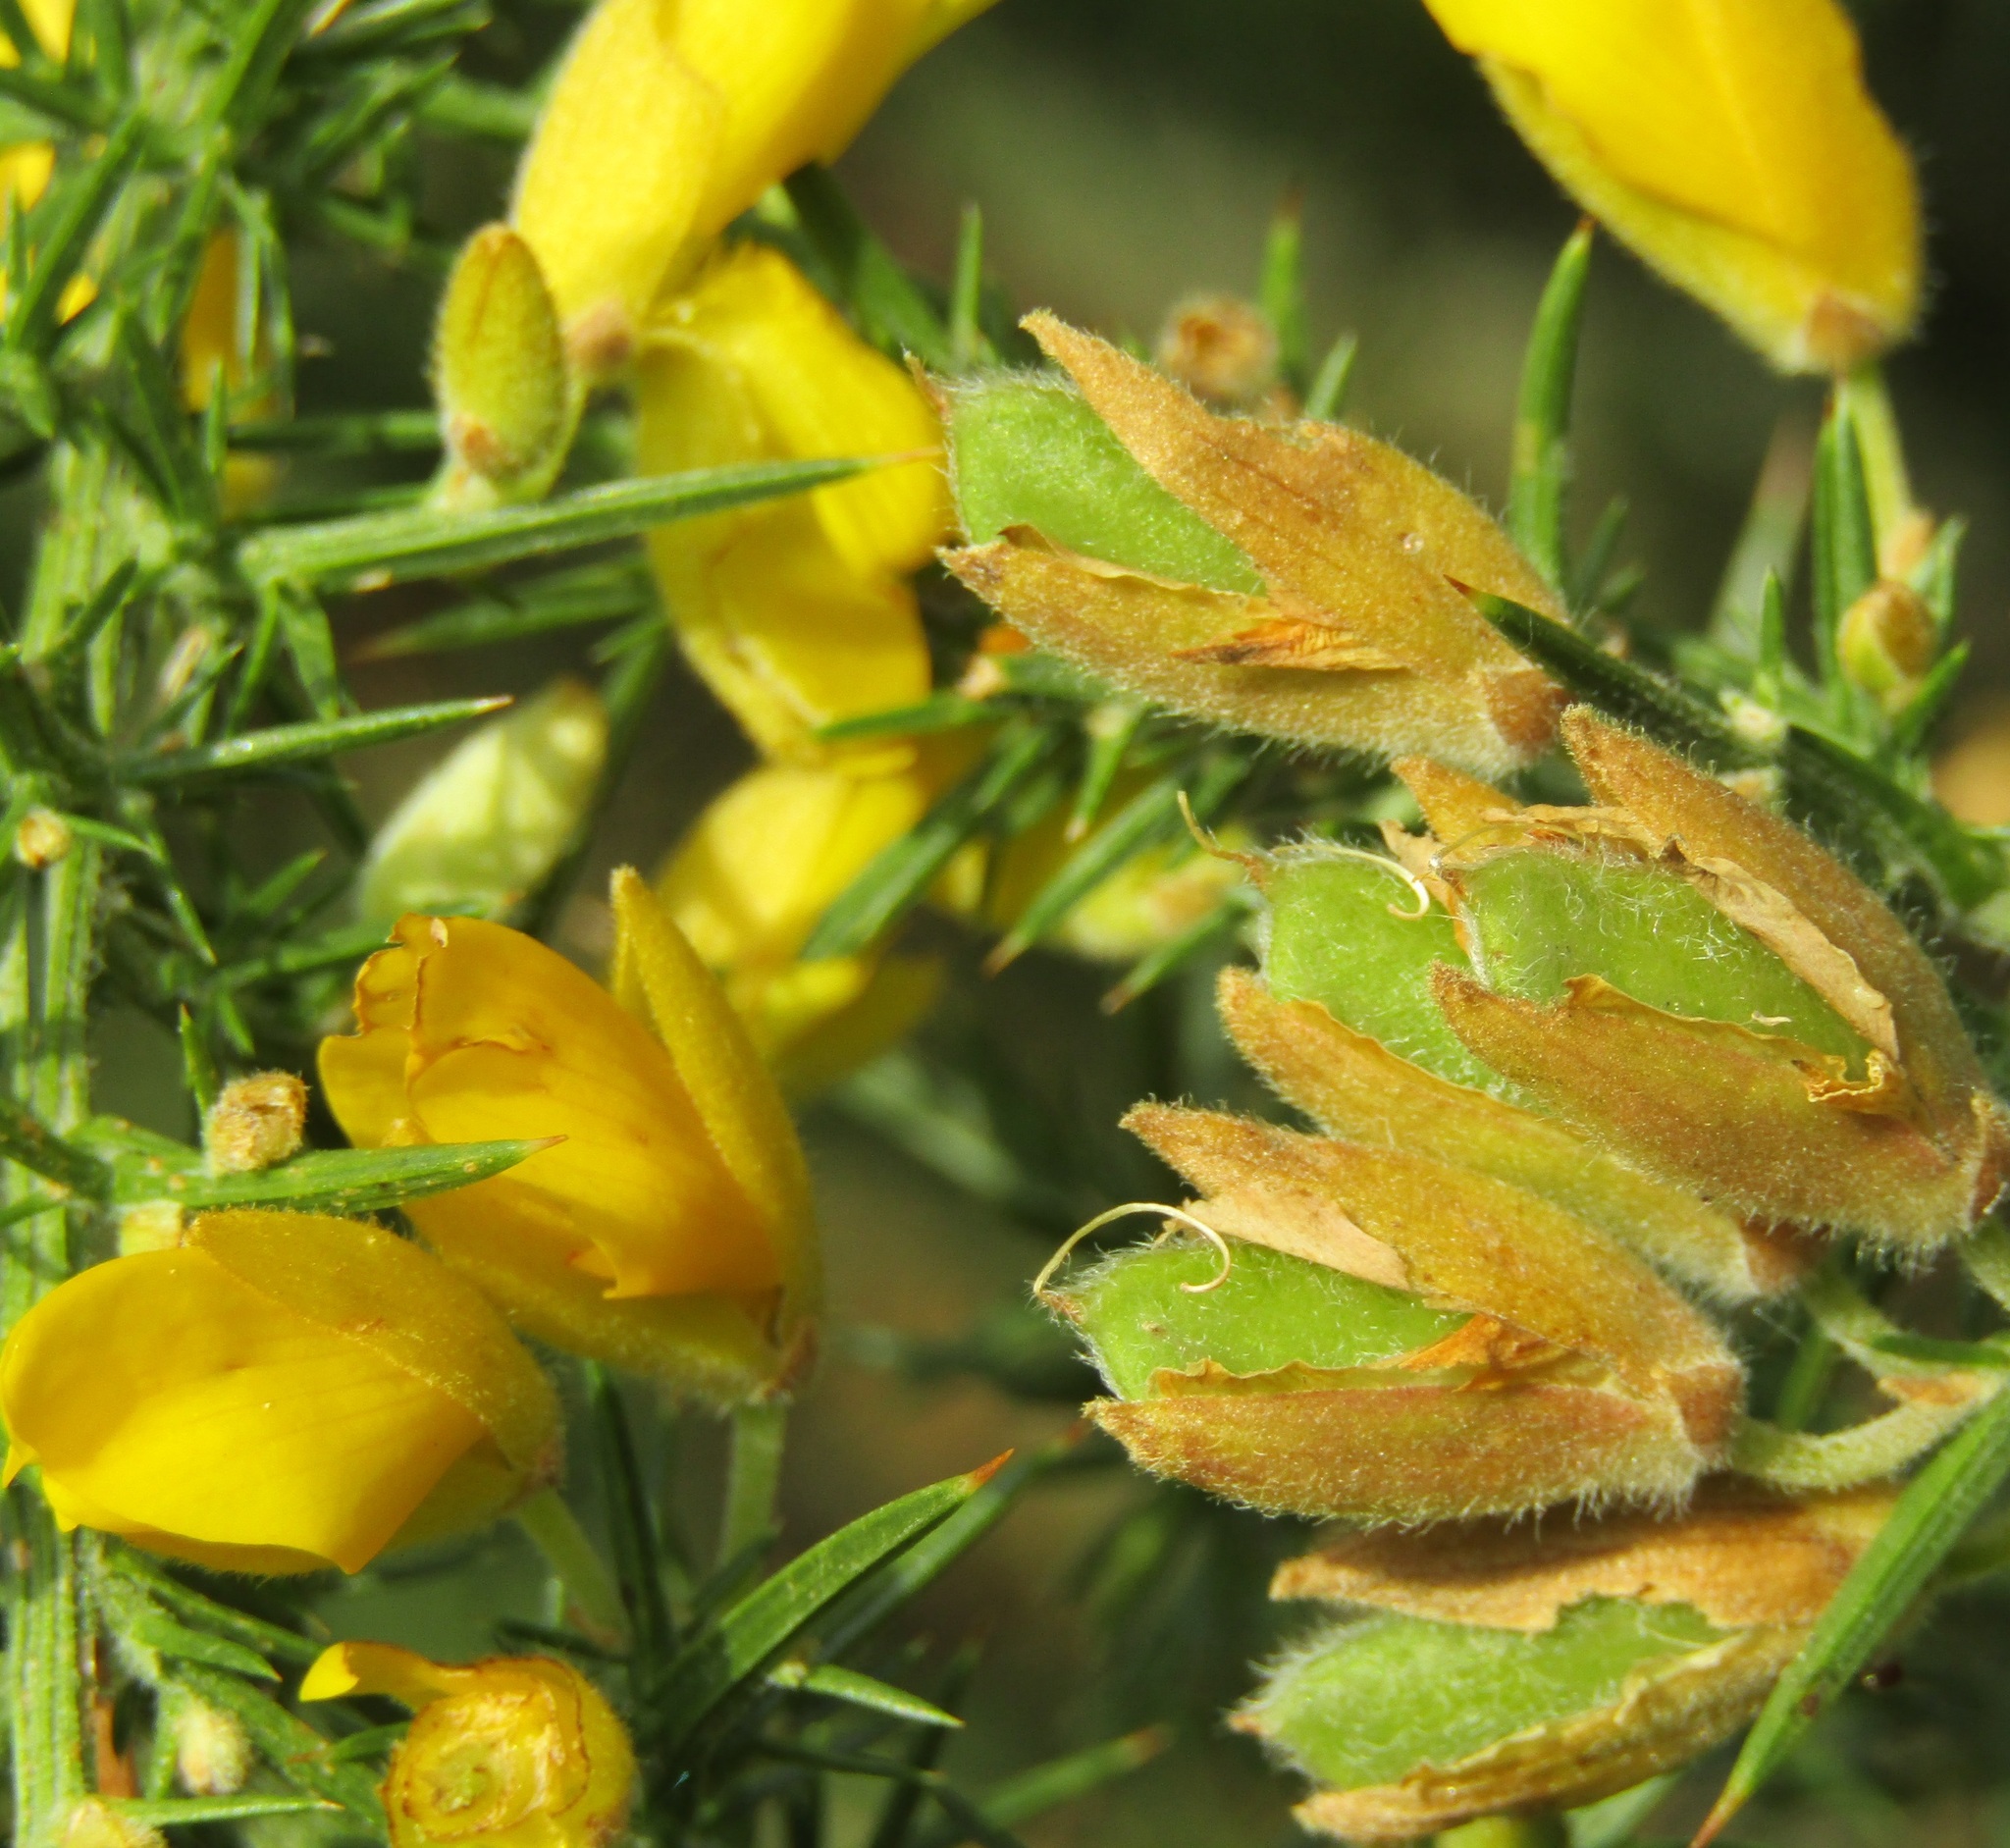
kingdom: Plantae
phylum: Tracheophyta
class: Magnoliopsida
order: Fabales
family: Fabaceae
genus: Ulex
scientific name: Ulex europaeus
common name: Common gorse
